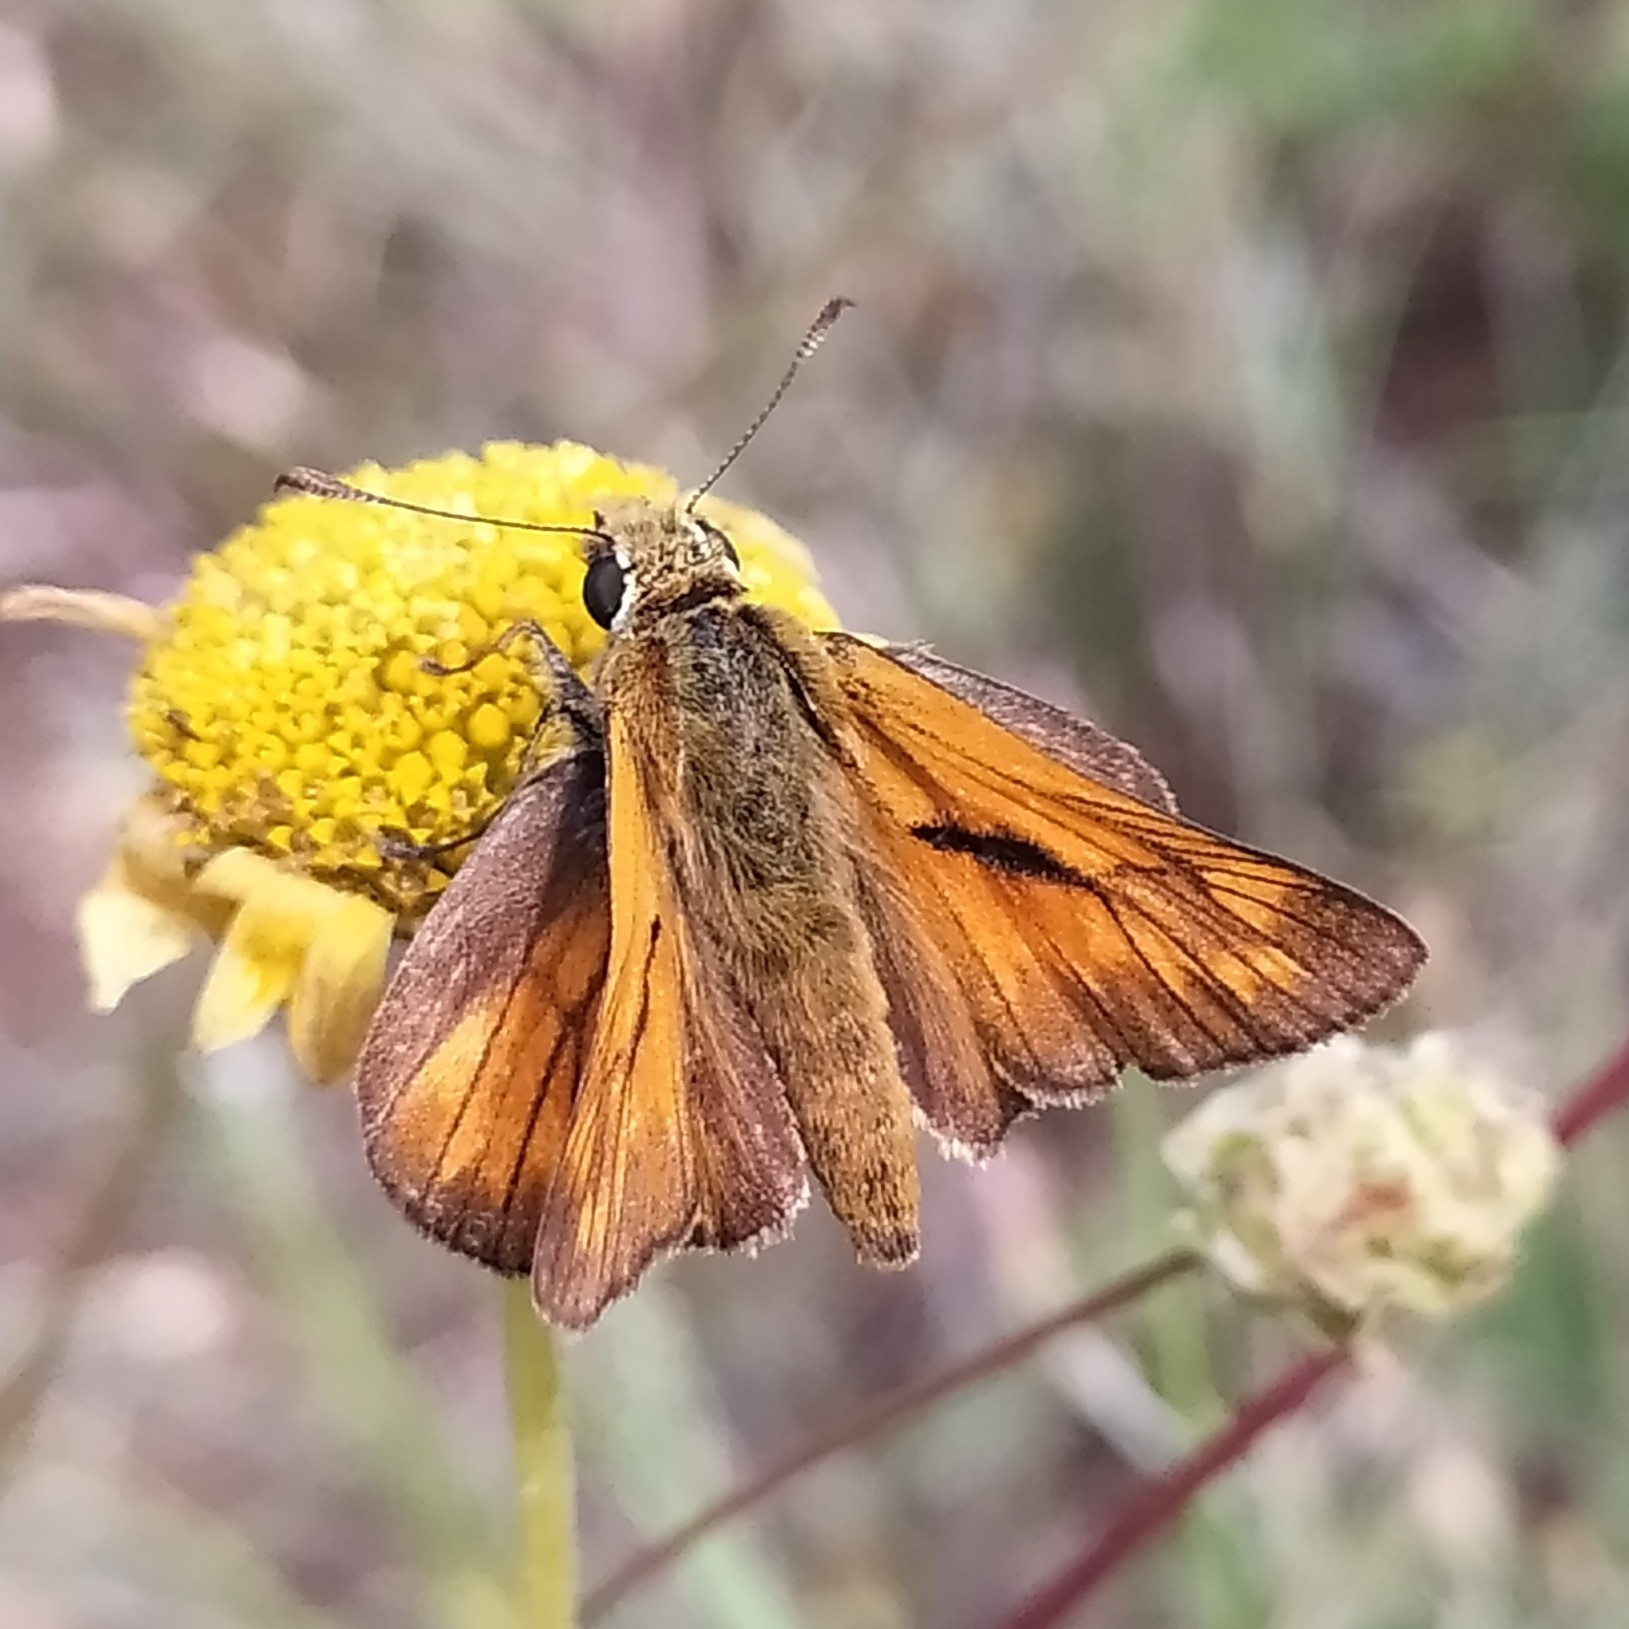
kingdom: Animalia
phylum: Arthropoda
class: Insecta
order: Lepidoptera
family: Hesperiidae
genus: Ochlodes
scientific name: Ochlodes venata
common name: Large skipper
